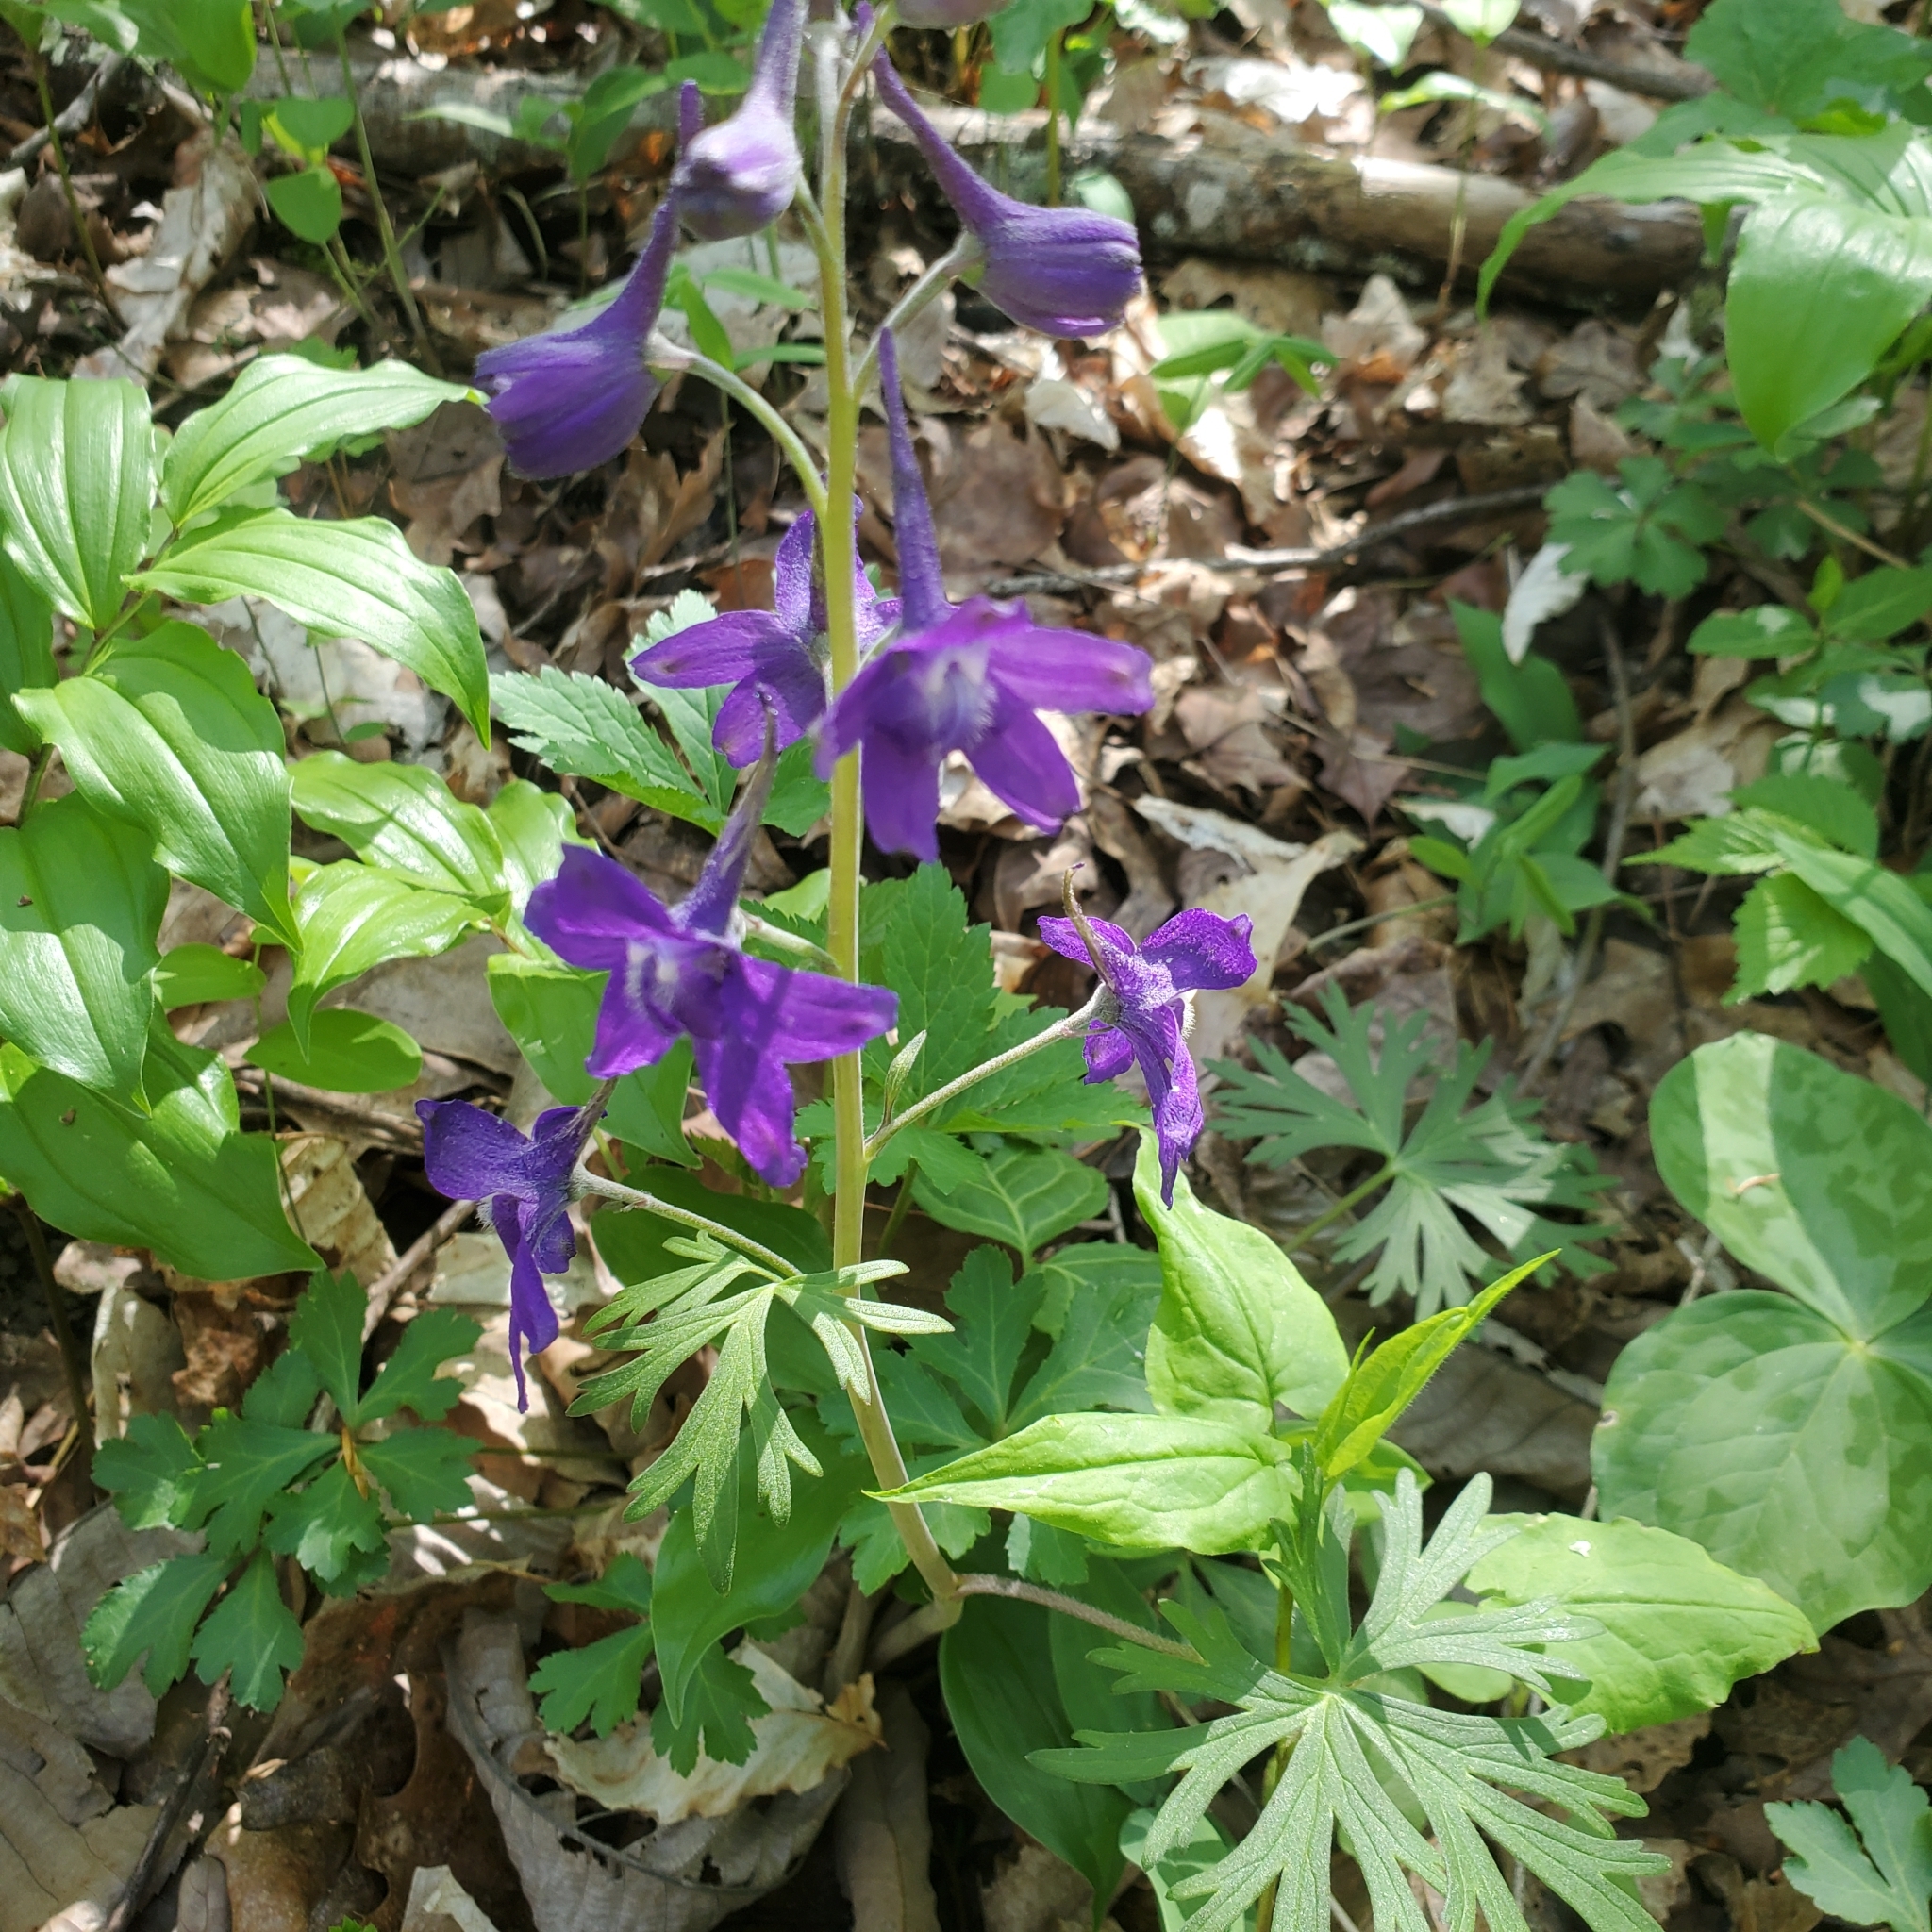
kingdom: Plantae
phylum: Tracheophyta
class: Magnoliopsida
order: Ranunculales
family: Ranunculaceae
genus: Delphinium
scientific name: Delphinium tricorne
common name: Dwarf larkspur
